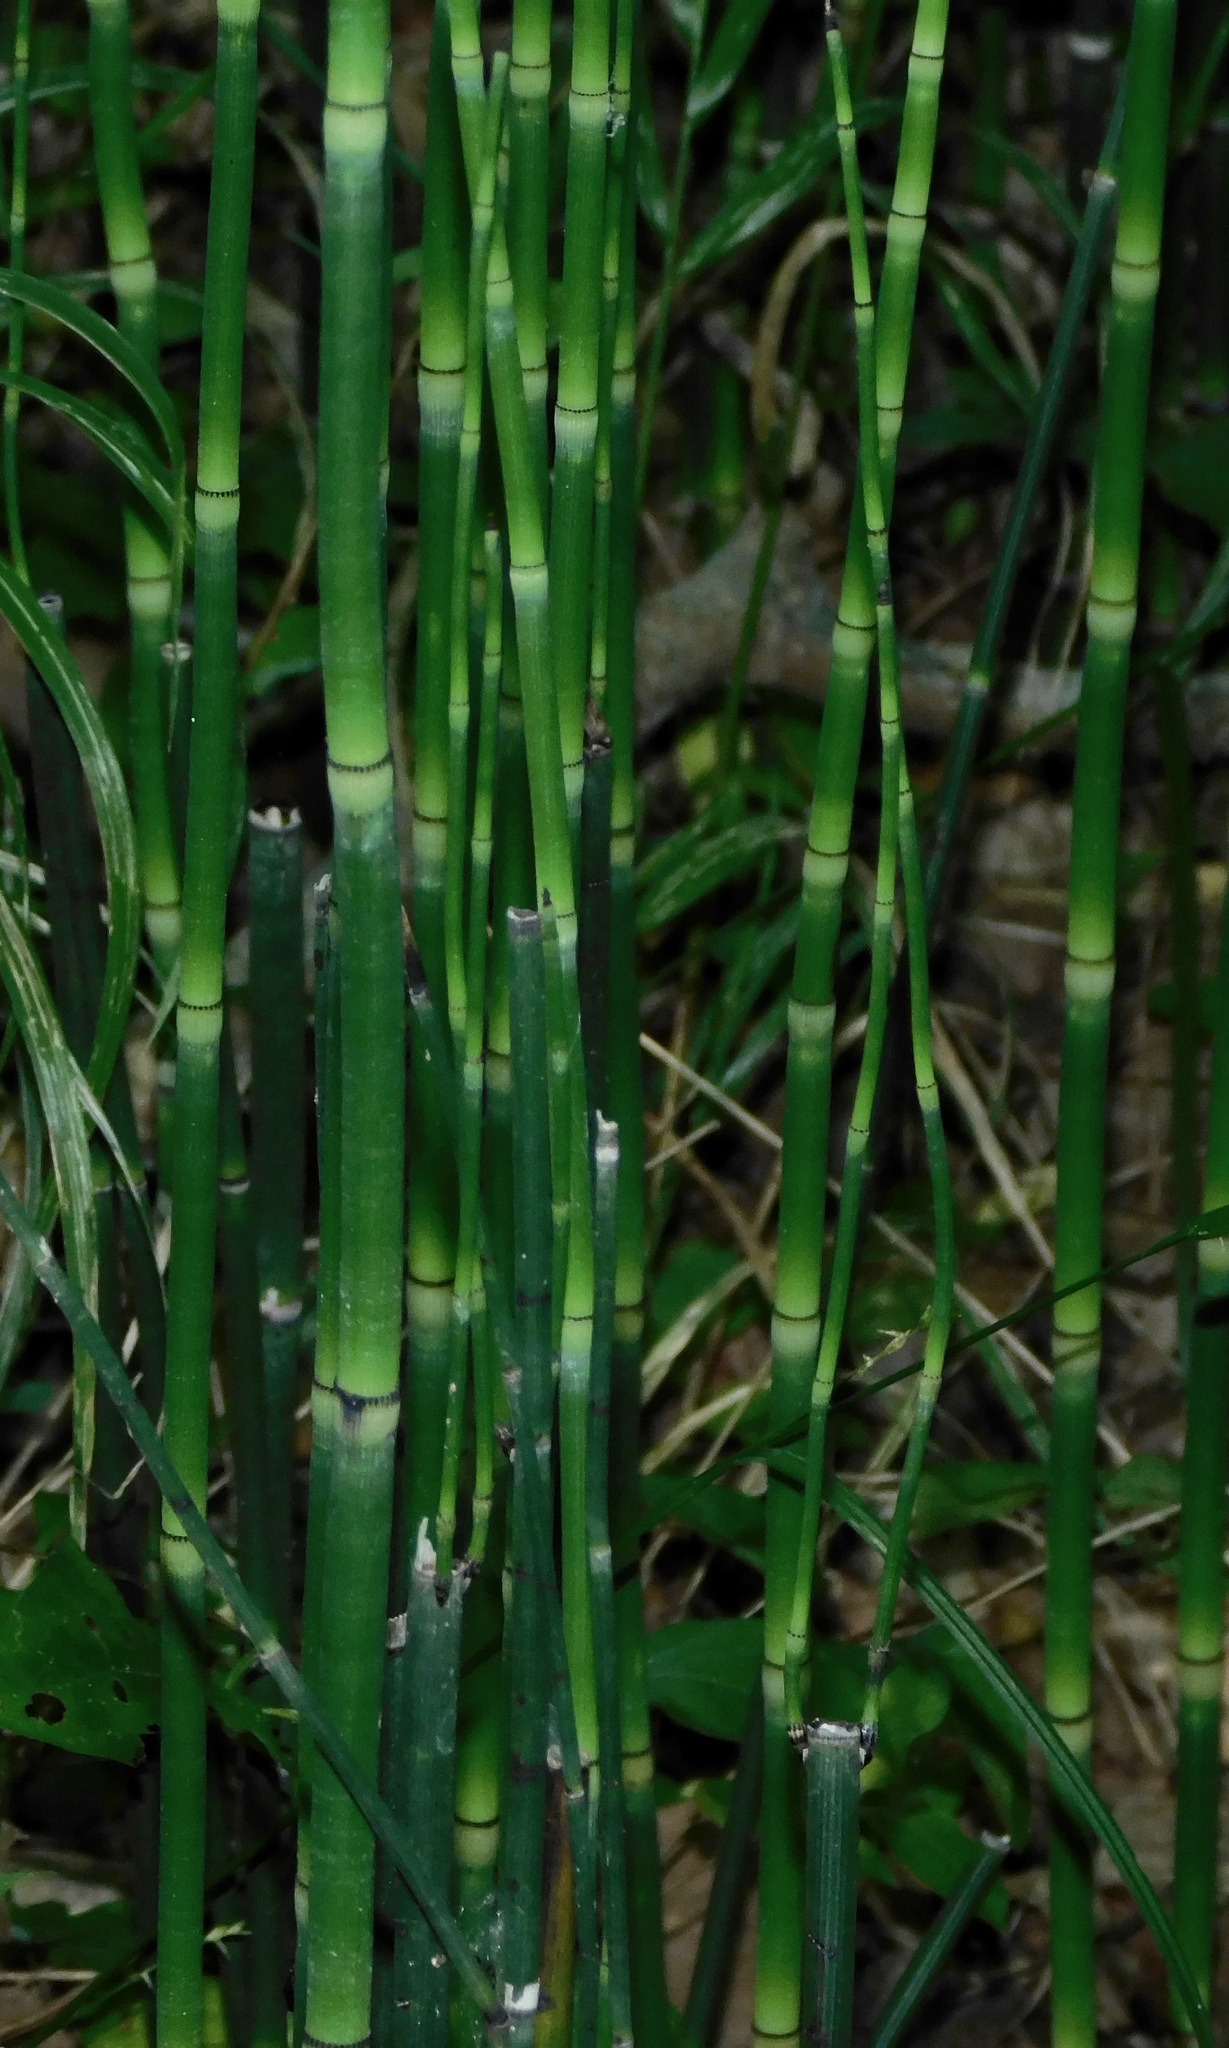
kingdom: Plantae
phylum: Tracheophyta
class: Polypodiopsida
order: Equisetales
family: Equisetaceae
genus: Equisetum
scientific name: Equisetum hyemale
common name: Rough horsetail
